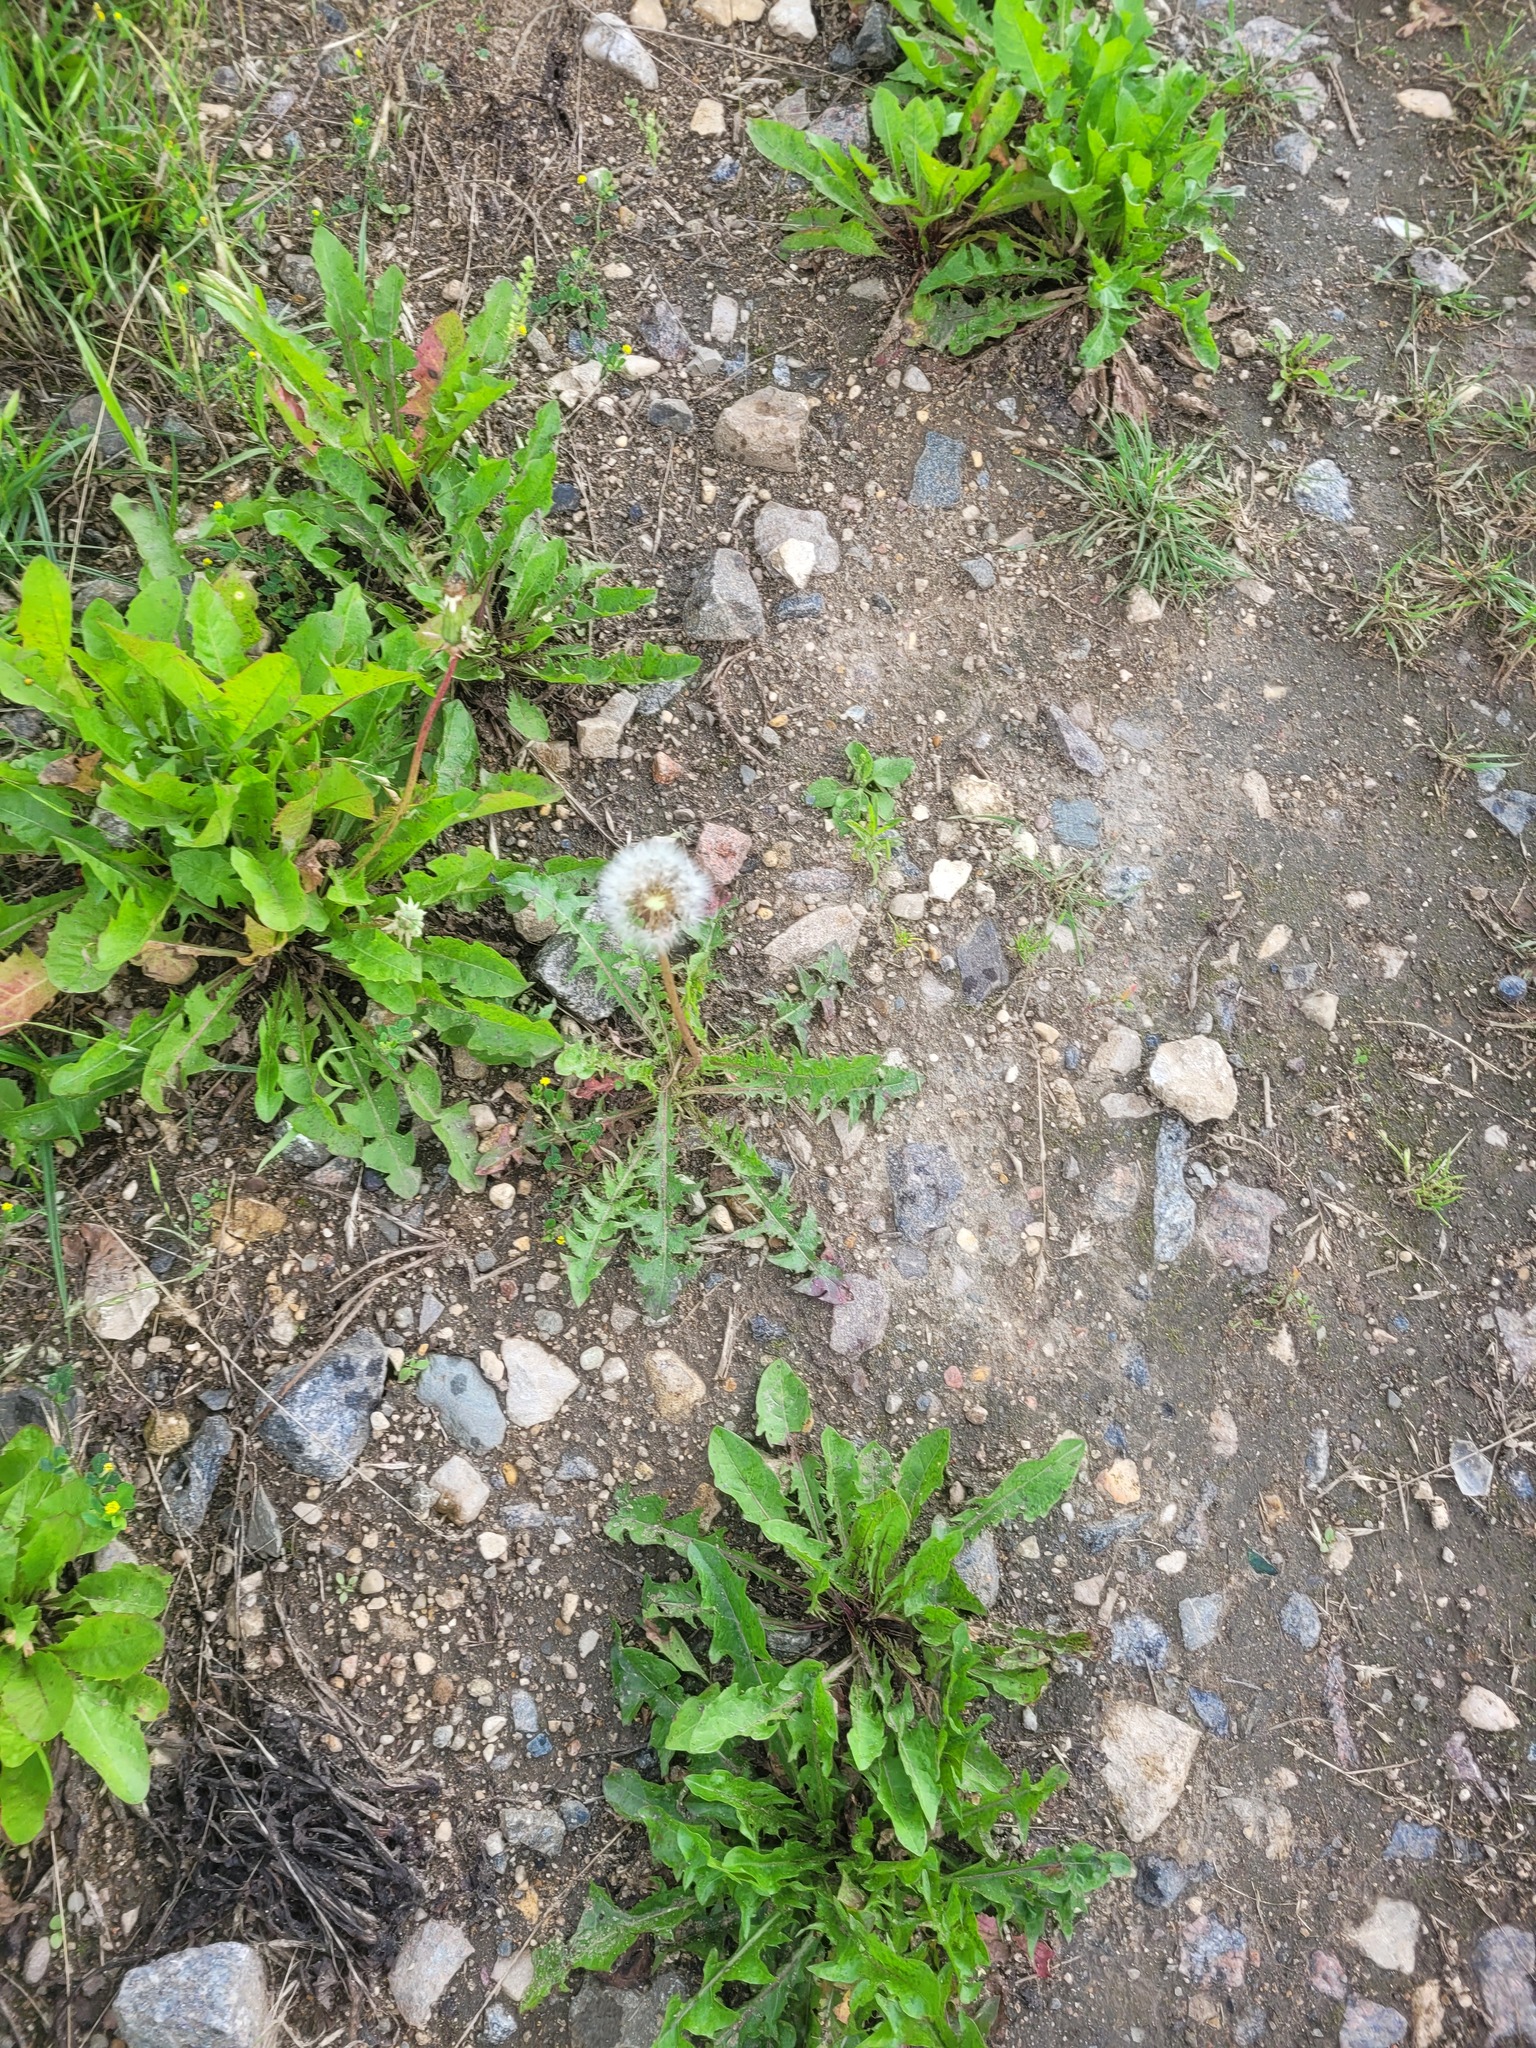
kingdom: Plantae
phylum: Tracheophyta
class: Magnoliopsida
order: Asterales
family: Asteraceae
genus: Taraxacum
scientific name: Taraxacum officinale
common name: Common dandelion
